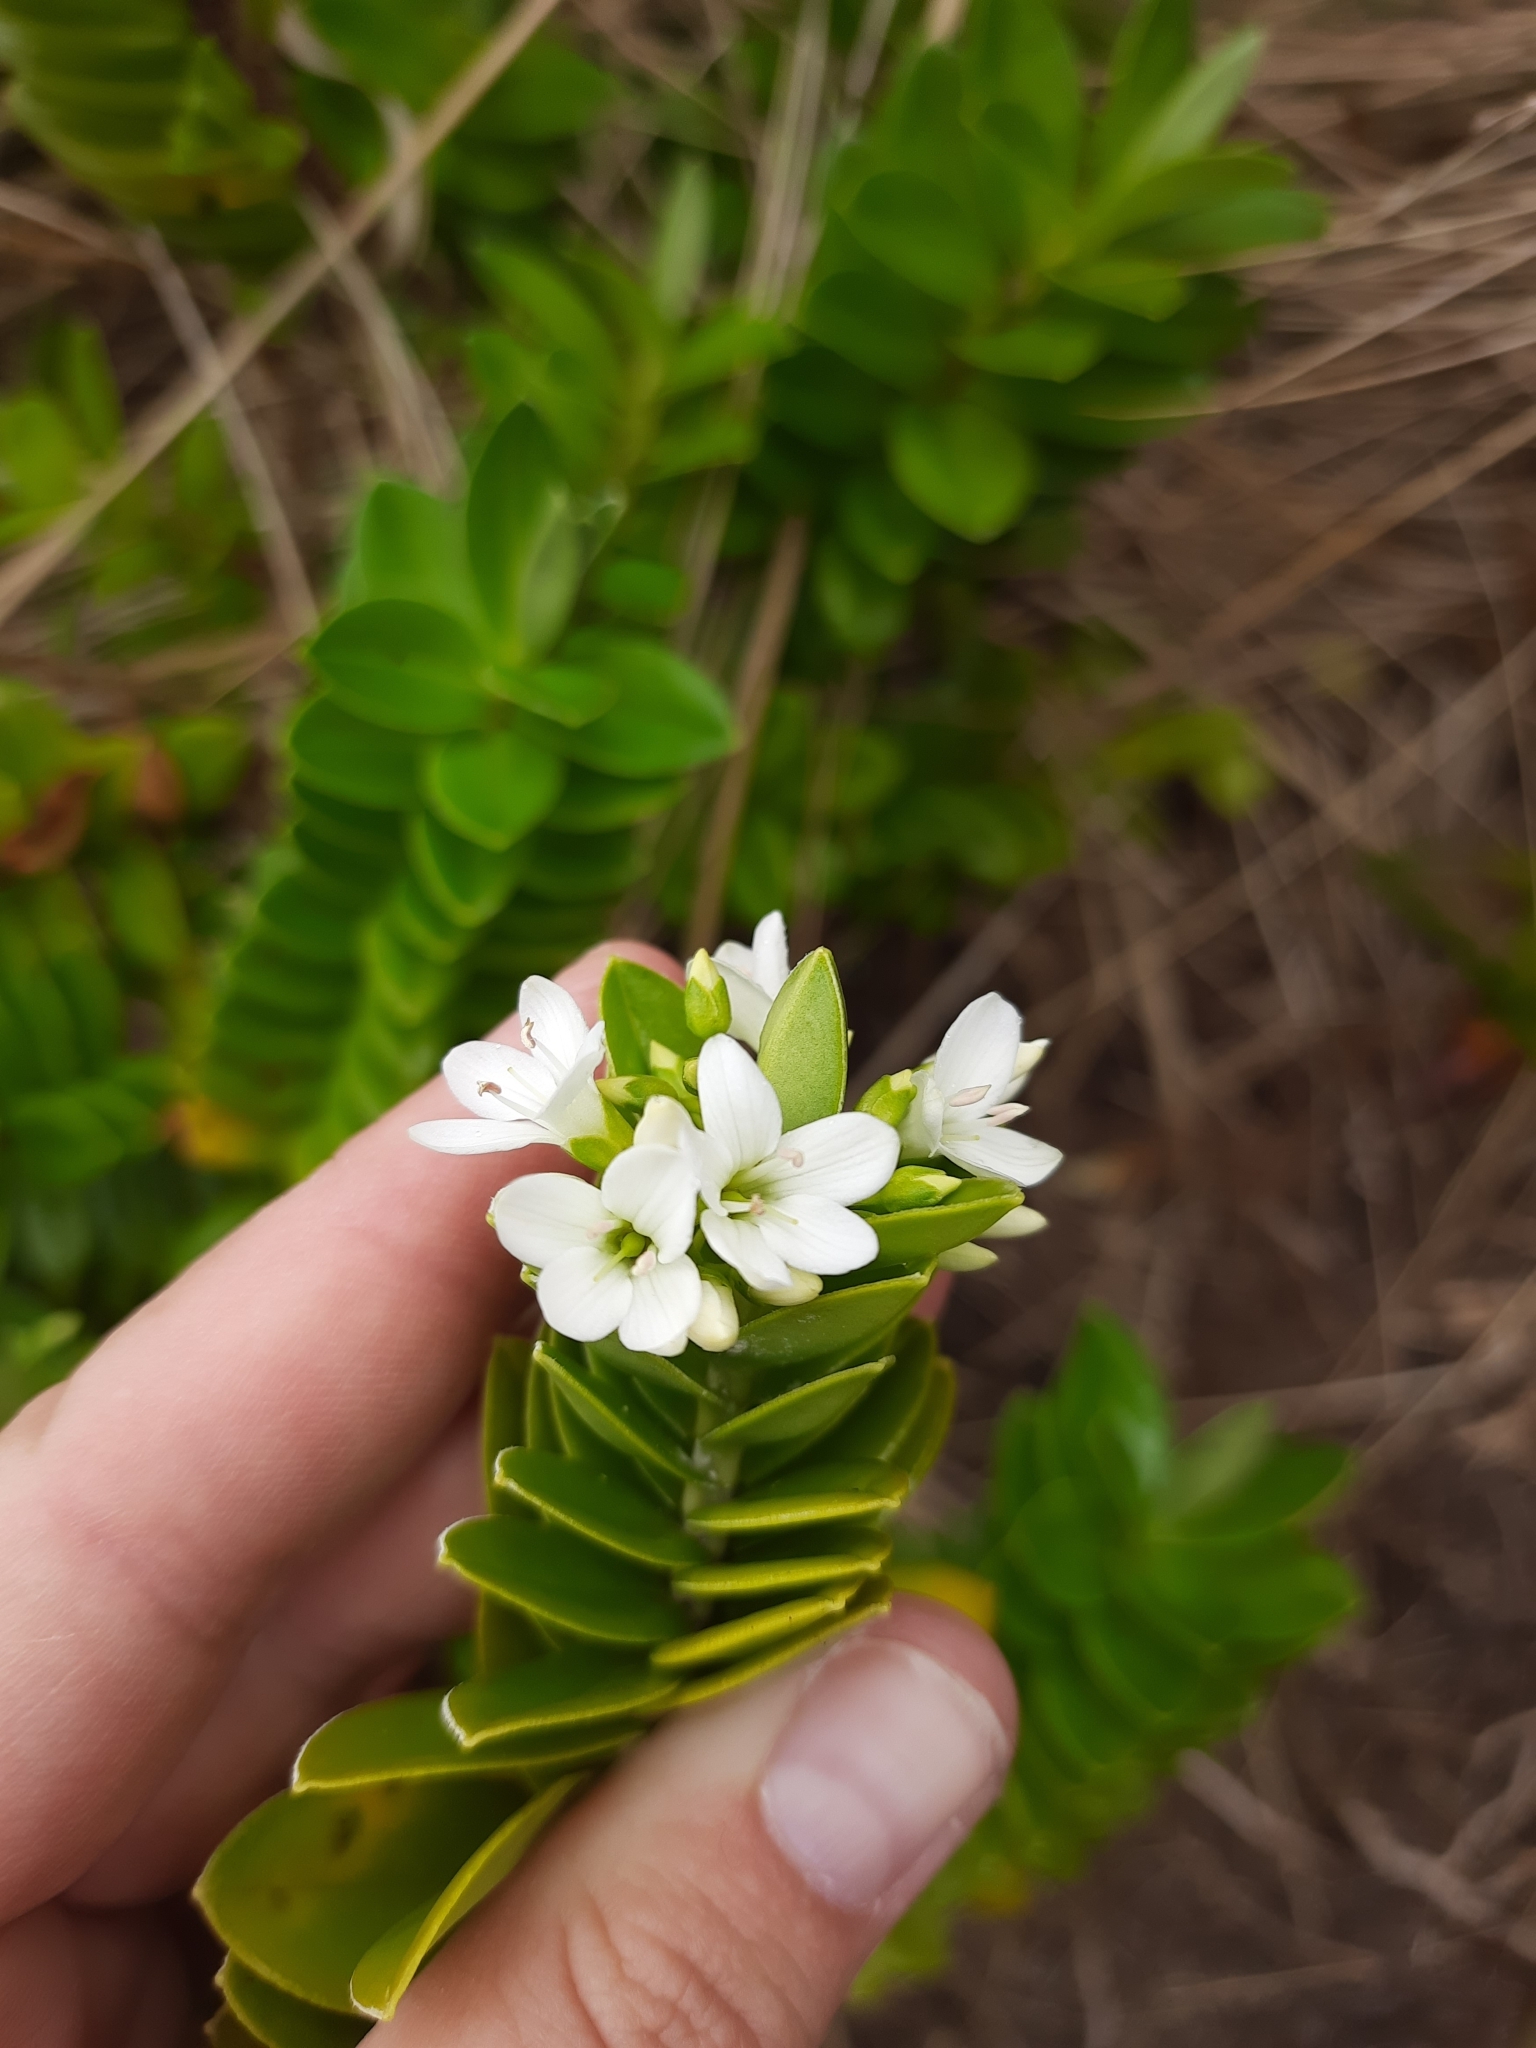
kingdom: Plantae
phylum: Tracheophyta
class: Magnoliopsida
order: Lamiales
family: Plantaginaceae
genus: Veronica
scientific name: Veronica elliptica
